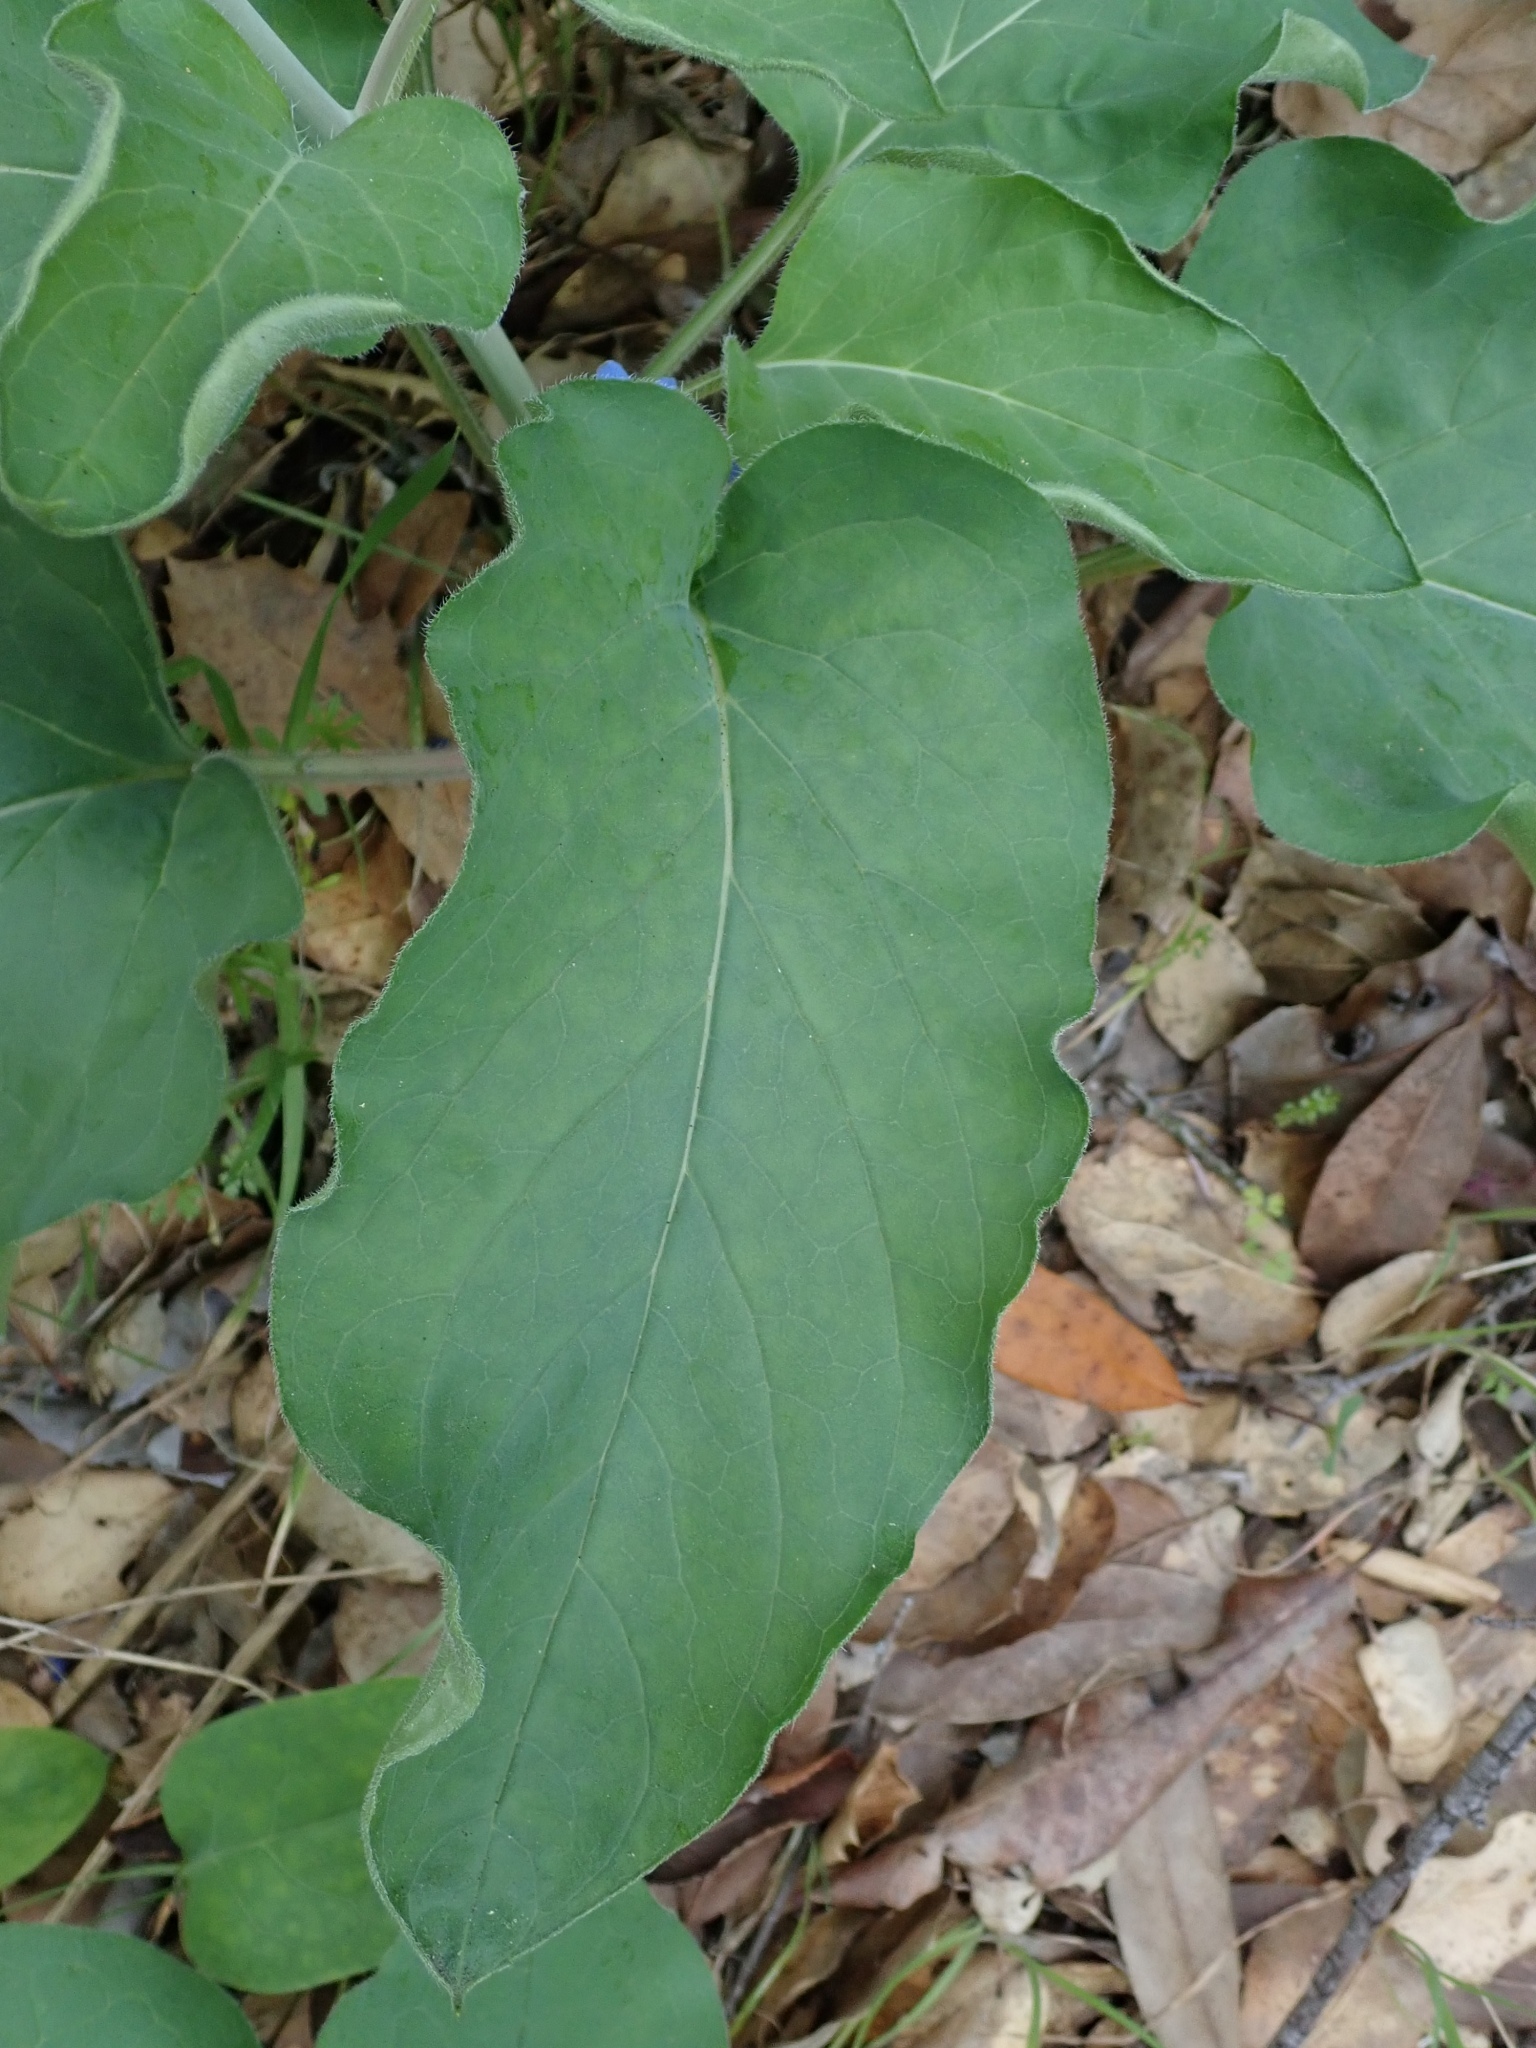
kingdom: Plantae
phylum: Tracheophyta
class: Magnoliopsida
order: Boraginales
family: Boraginaceae
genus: Adelinia
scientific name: Adelinia grande
